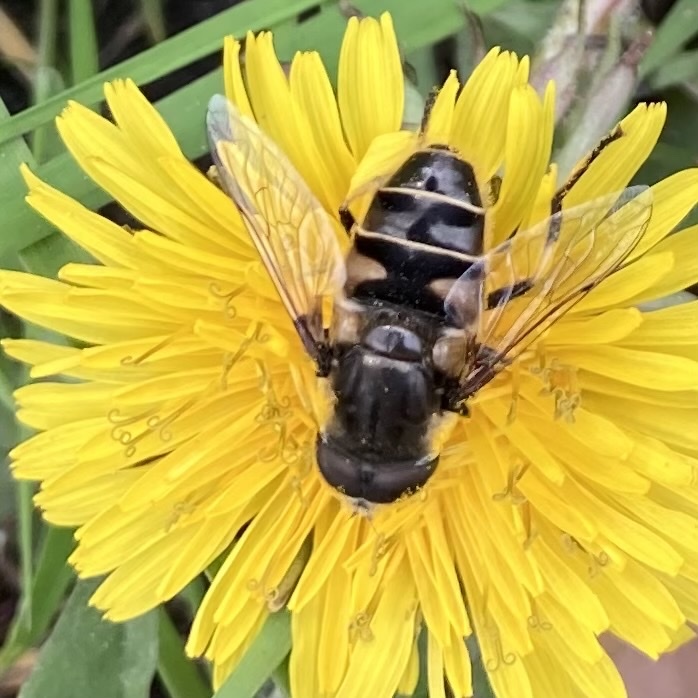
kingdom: Animalia
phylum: Arthropoda
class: Insecta
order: Diptera
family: Syrphidae
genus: Eristalis
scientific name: Eristalis dimidiata
